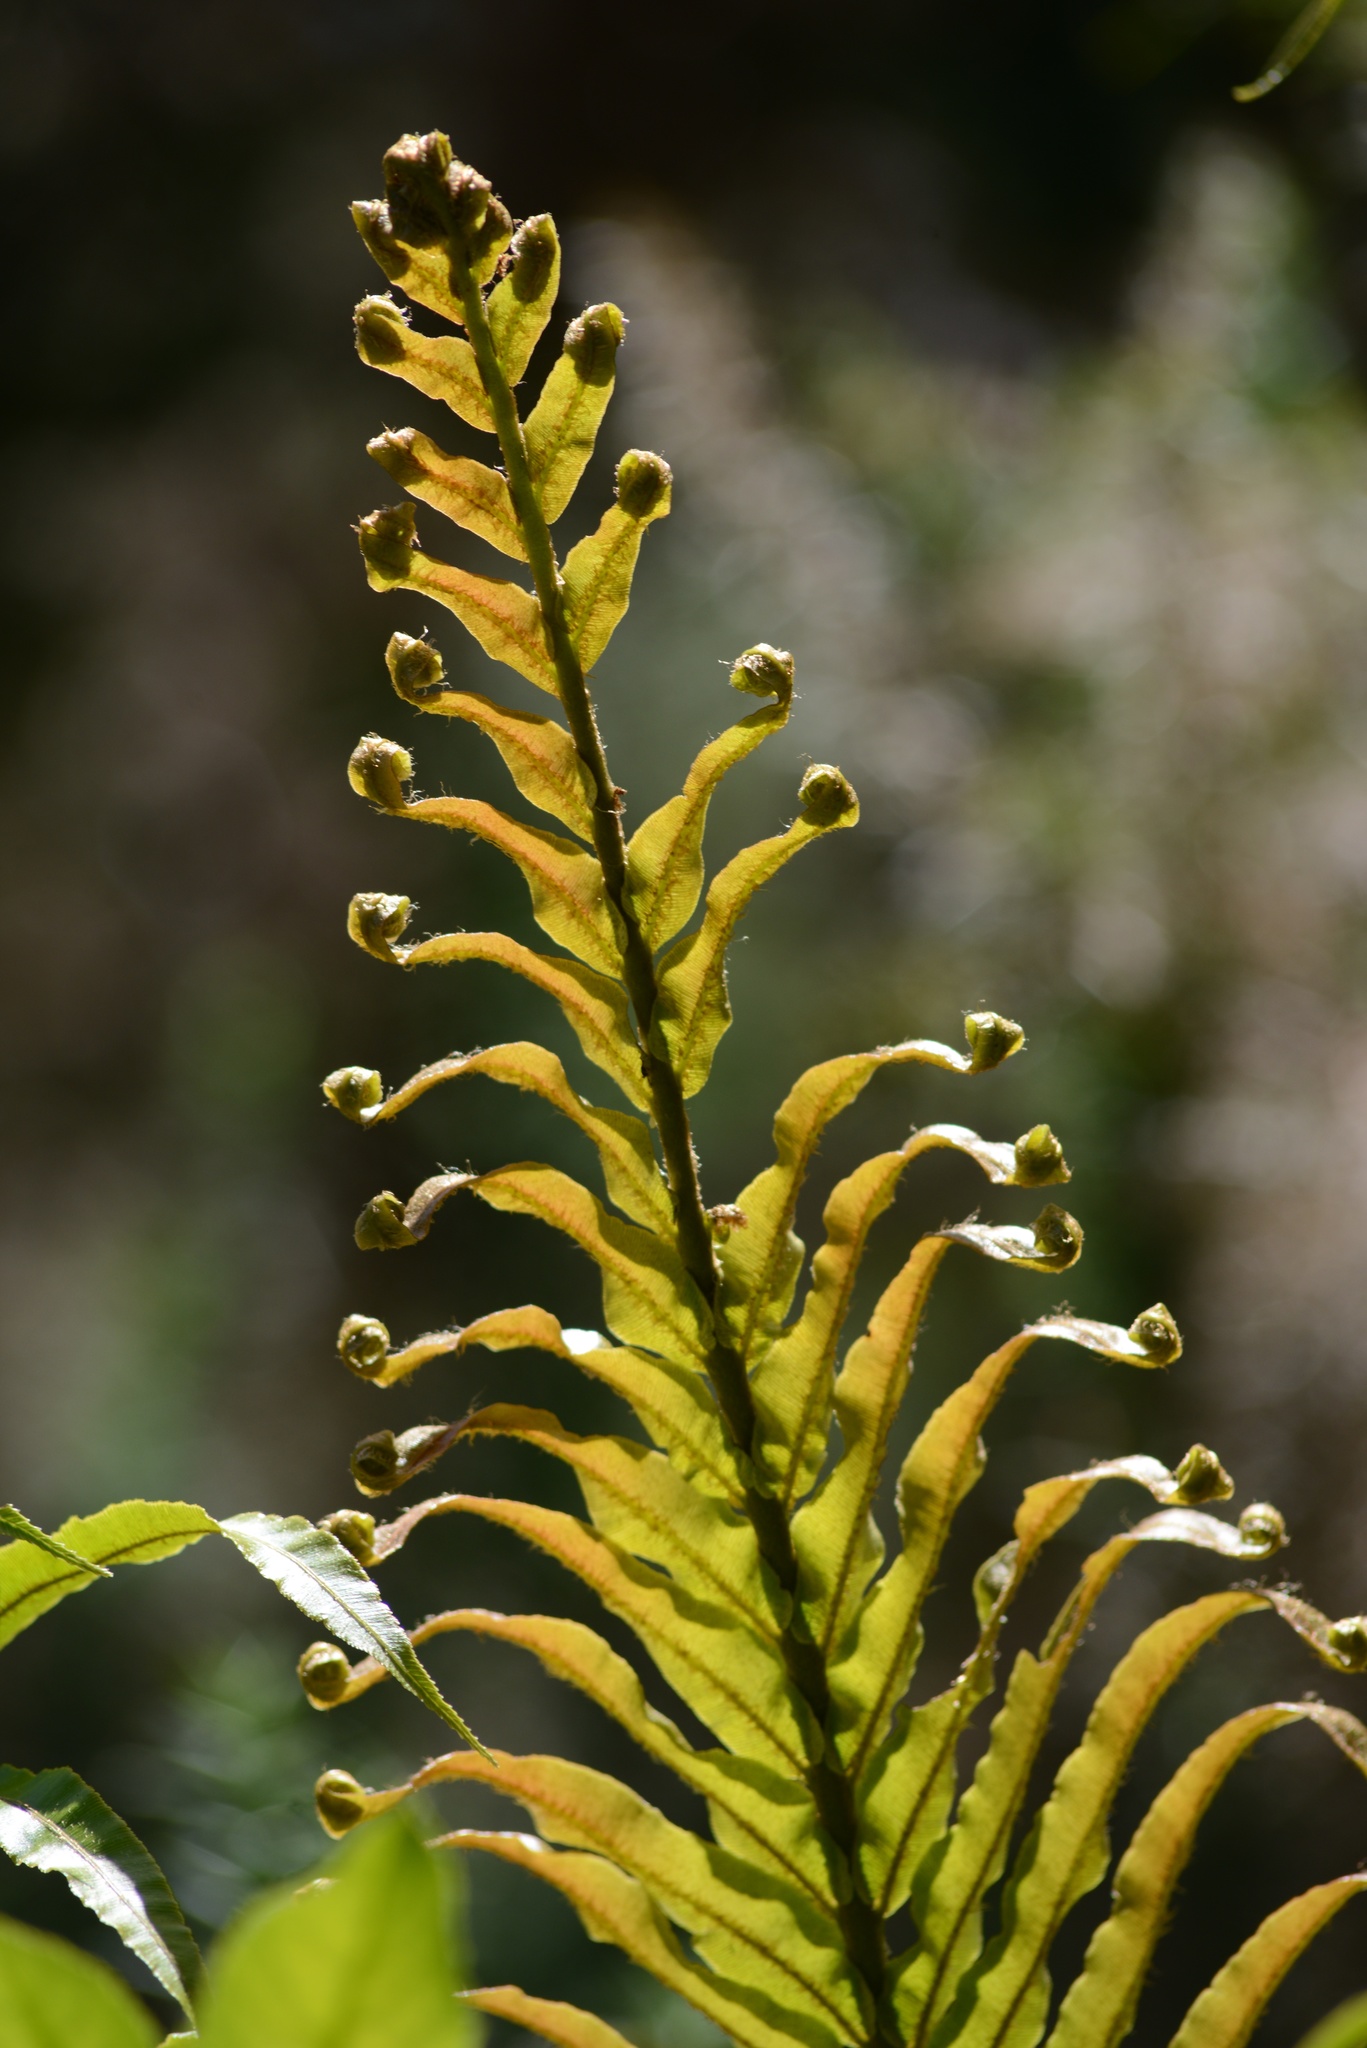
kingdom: Plantae
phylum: Tracheophyta
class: Polypodiopsida
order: Polypodiales
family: Blechnaceae
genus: Parablechnum
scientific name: Parablechnum novae-zelandiae
